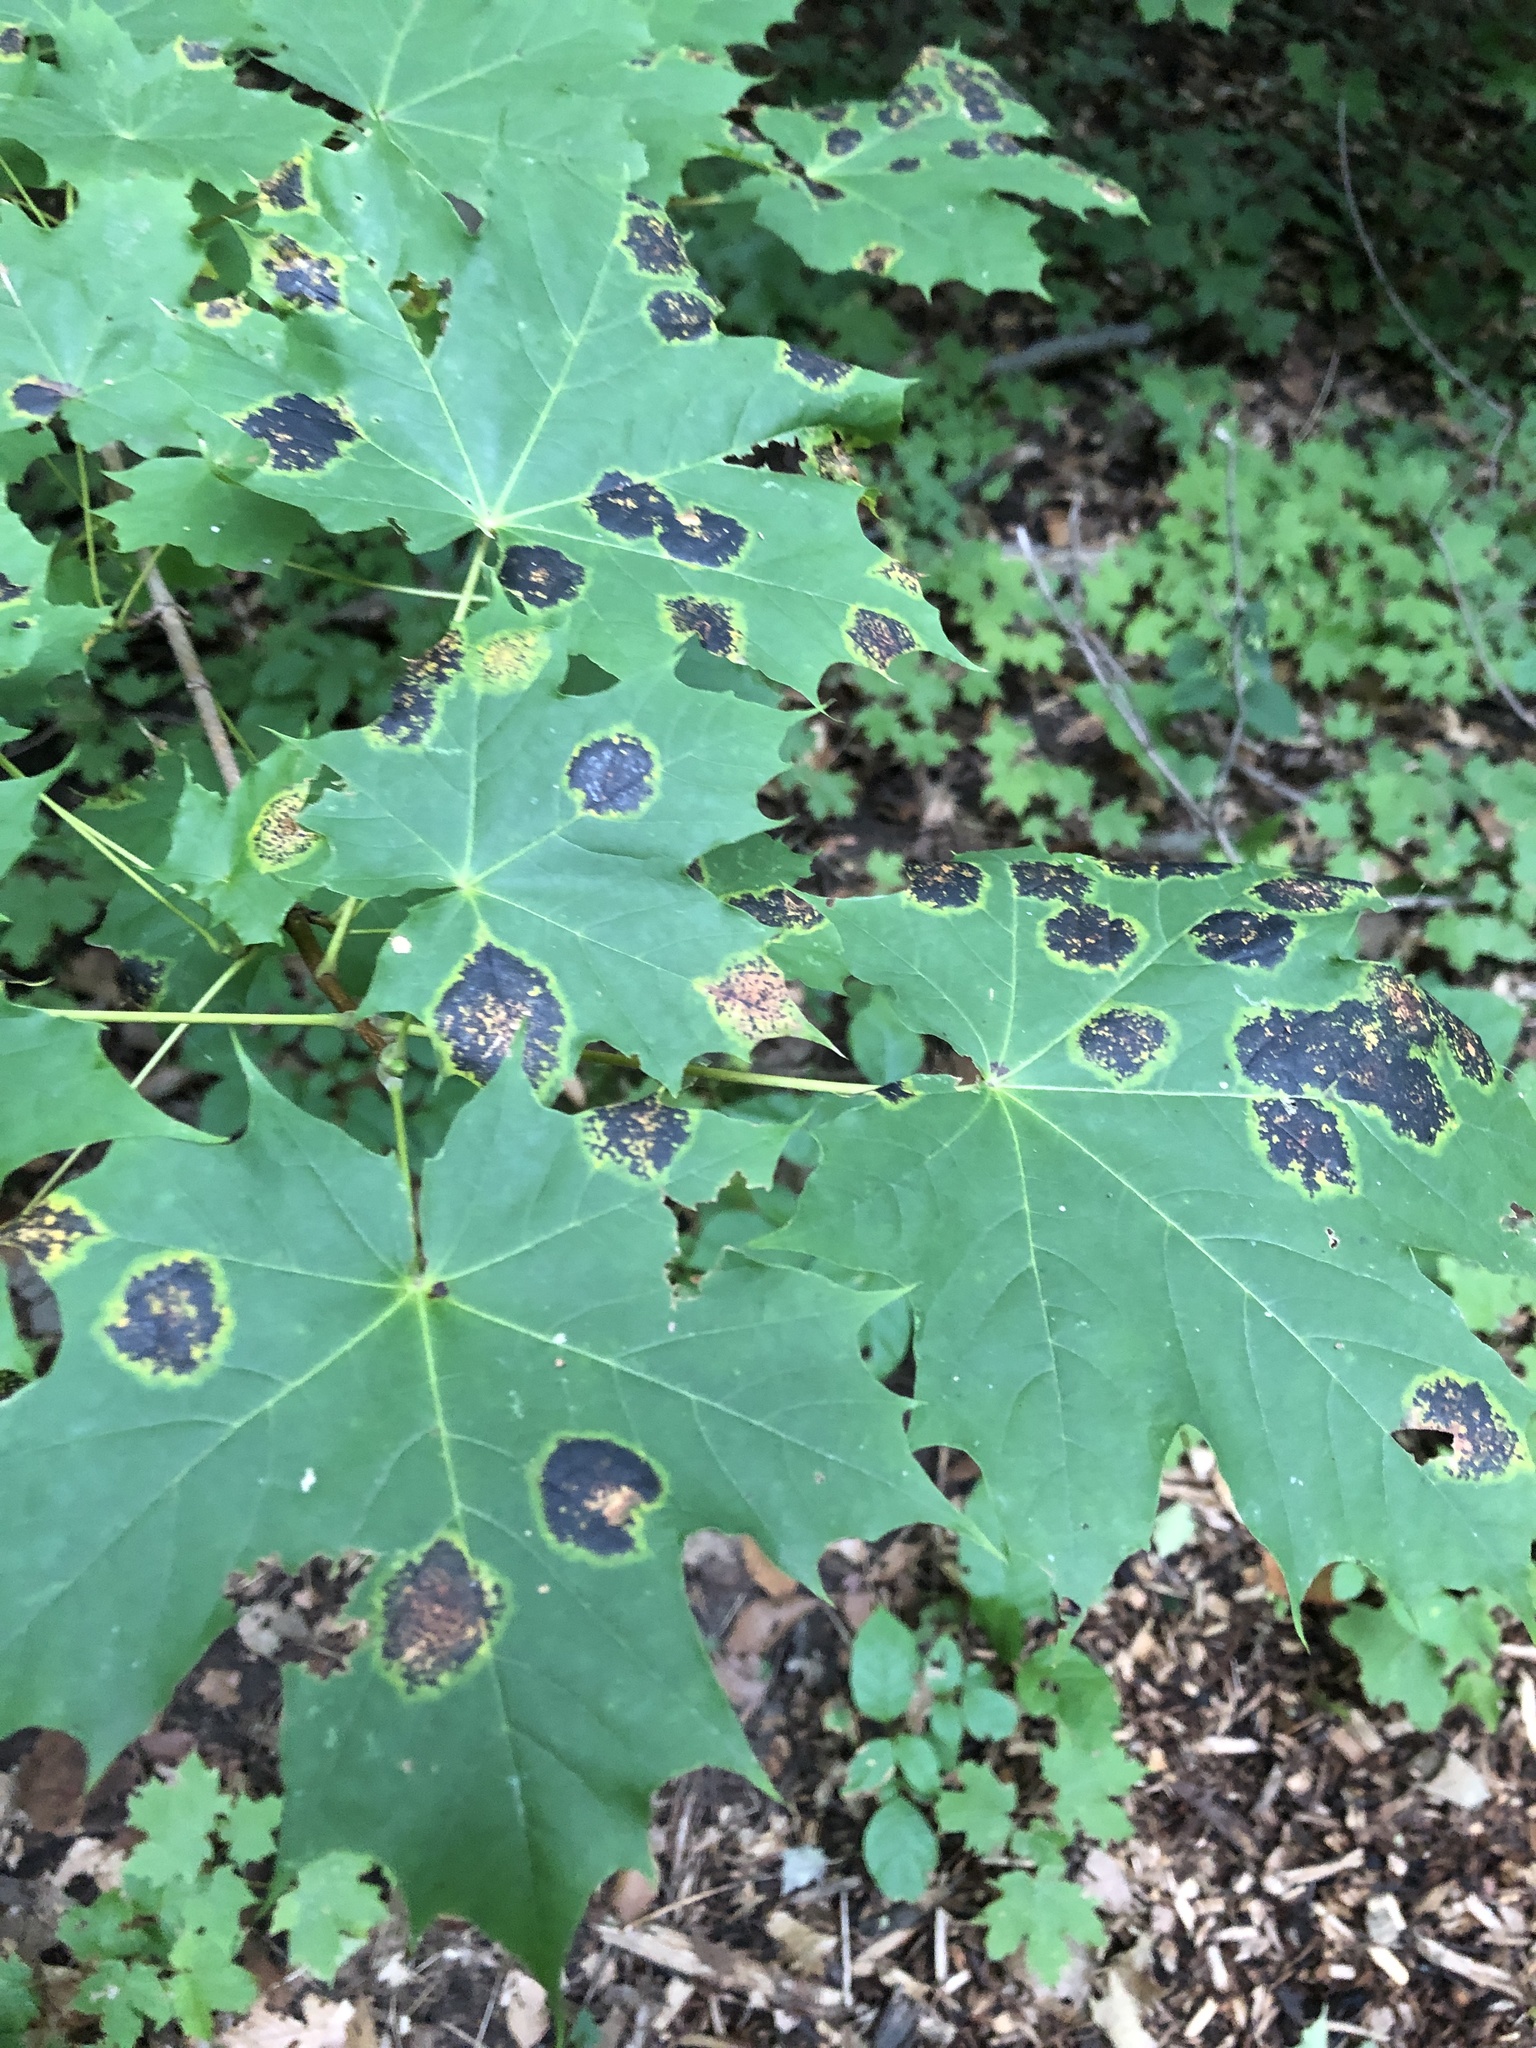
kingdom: Fungi
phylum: Ascomycota
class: Leotiomycetes
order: Rhytismatales
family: Rhytismataceae
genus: Rhytisma
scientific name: Rhytisma acerinum
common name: European tar spot
